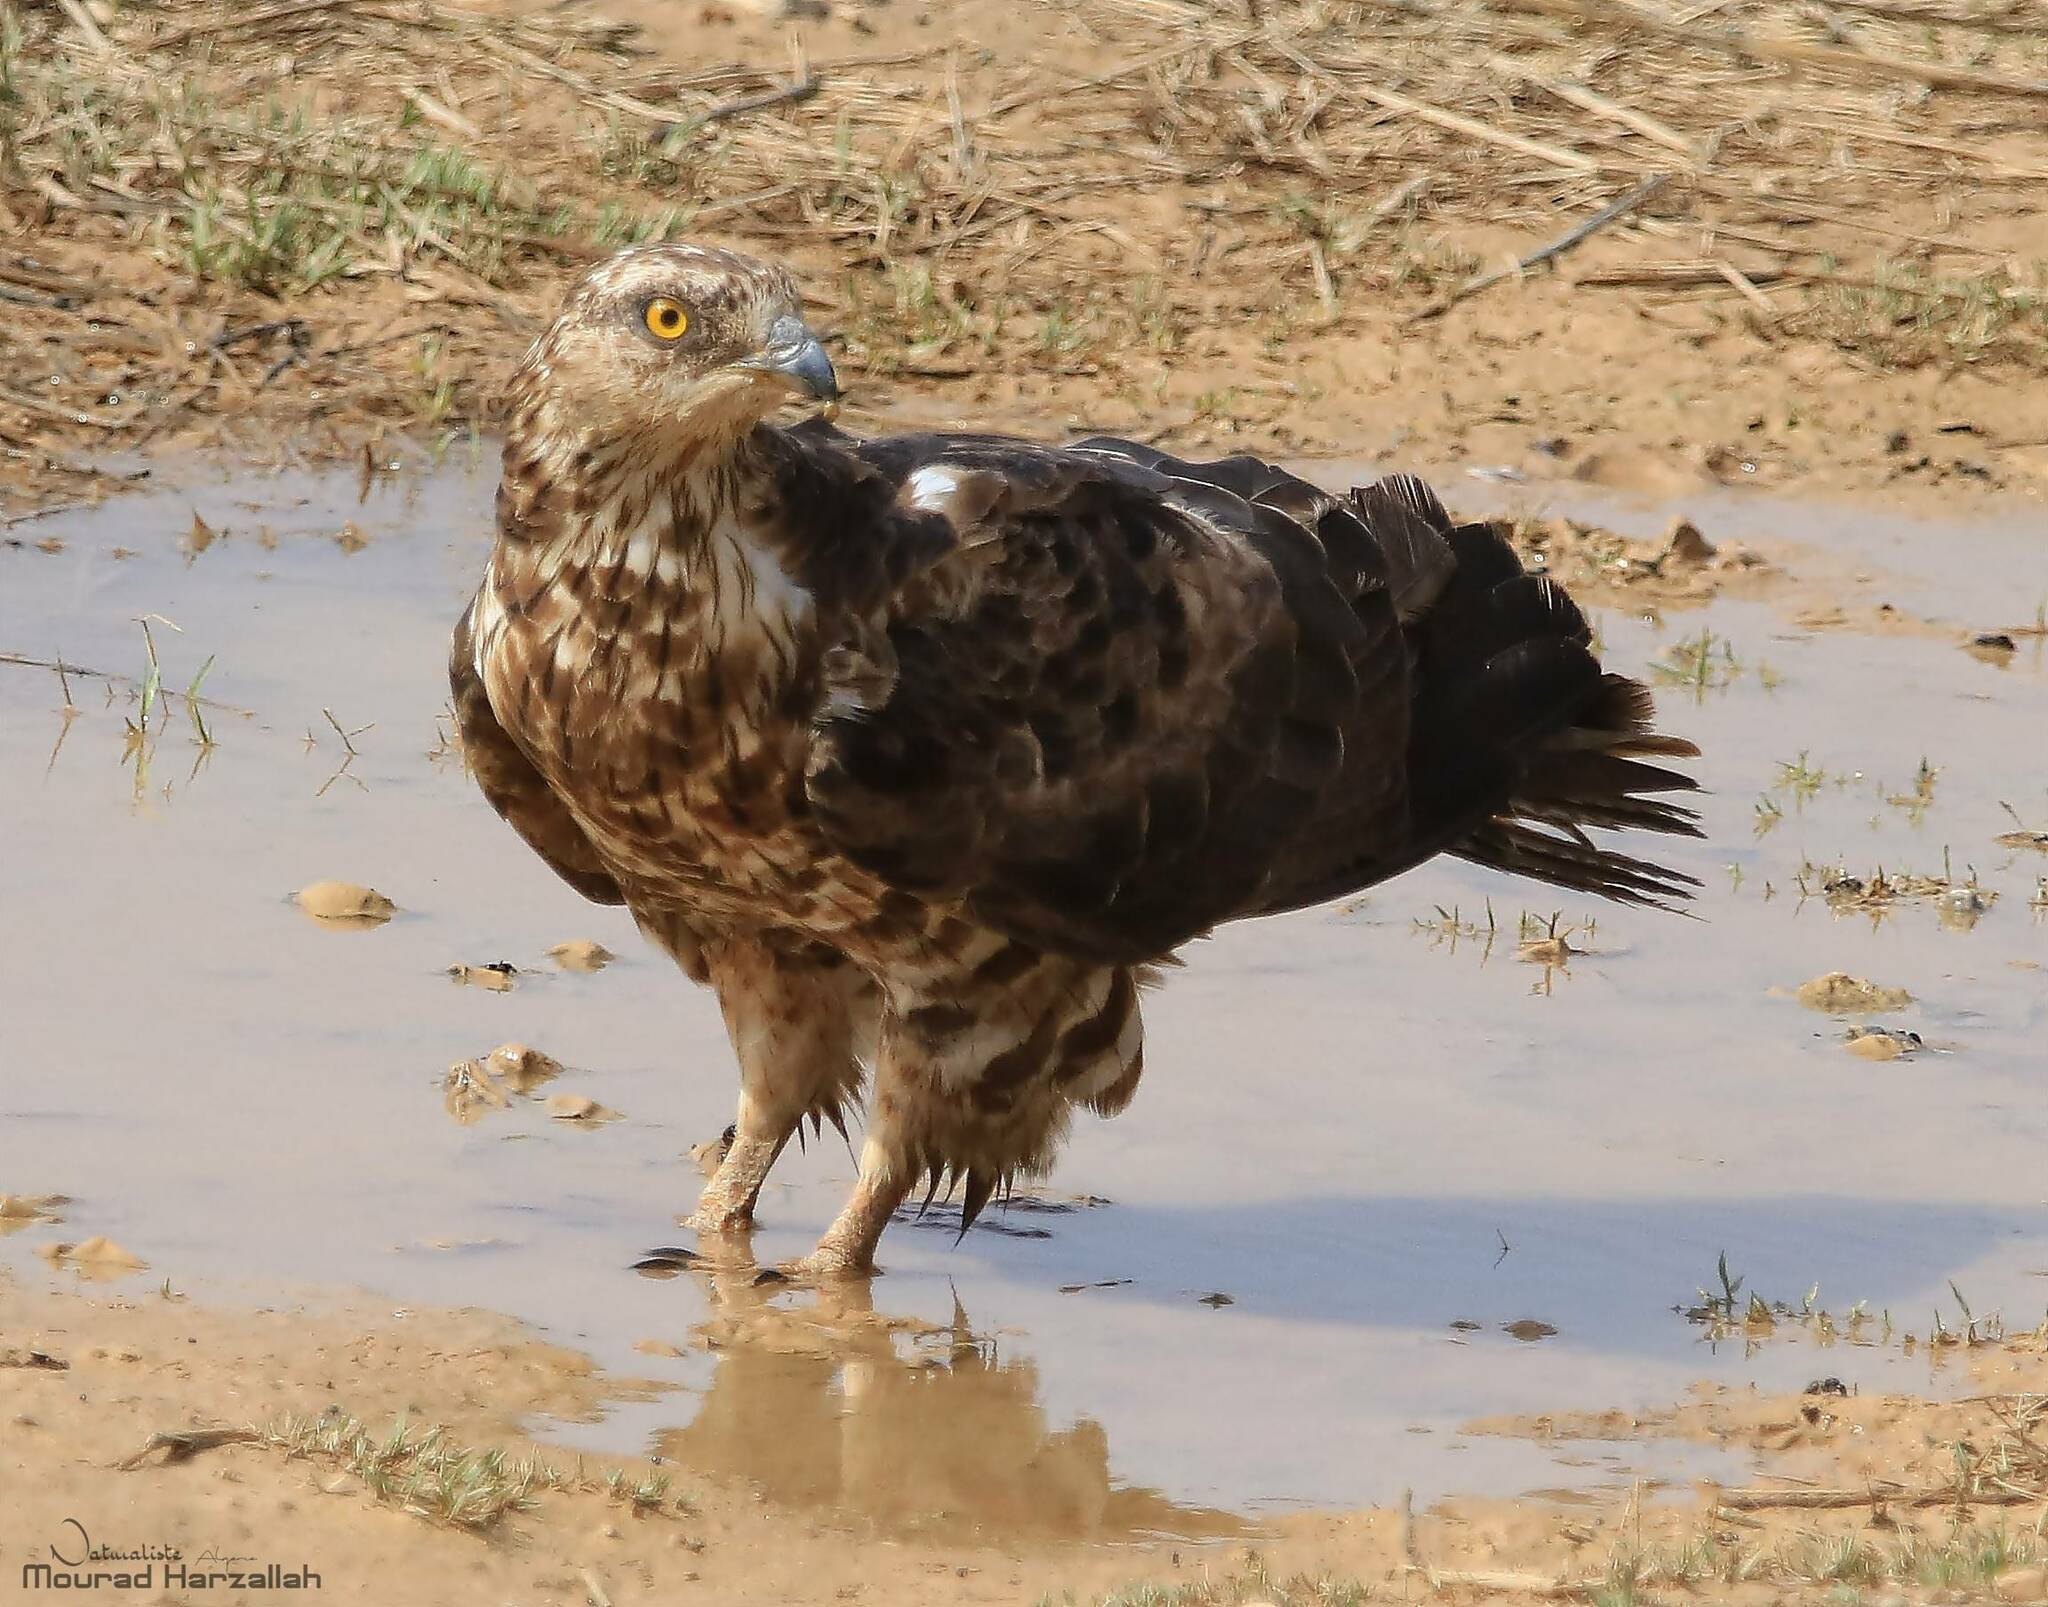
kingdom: Animalia
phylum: Chordata
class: Aves
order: Accipitriformes
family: Accipitridae
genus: Pernis
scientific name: Pernis apivorus
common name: European honey buzzard
